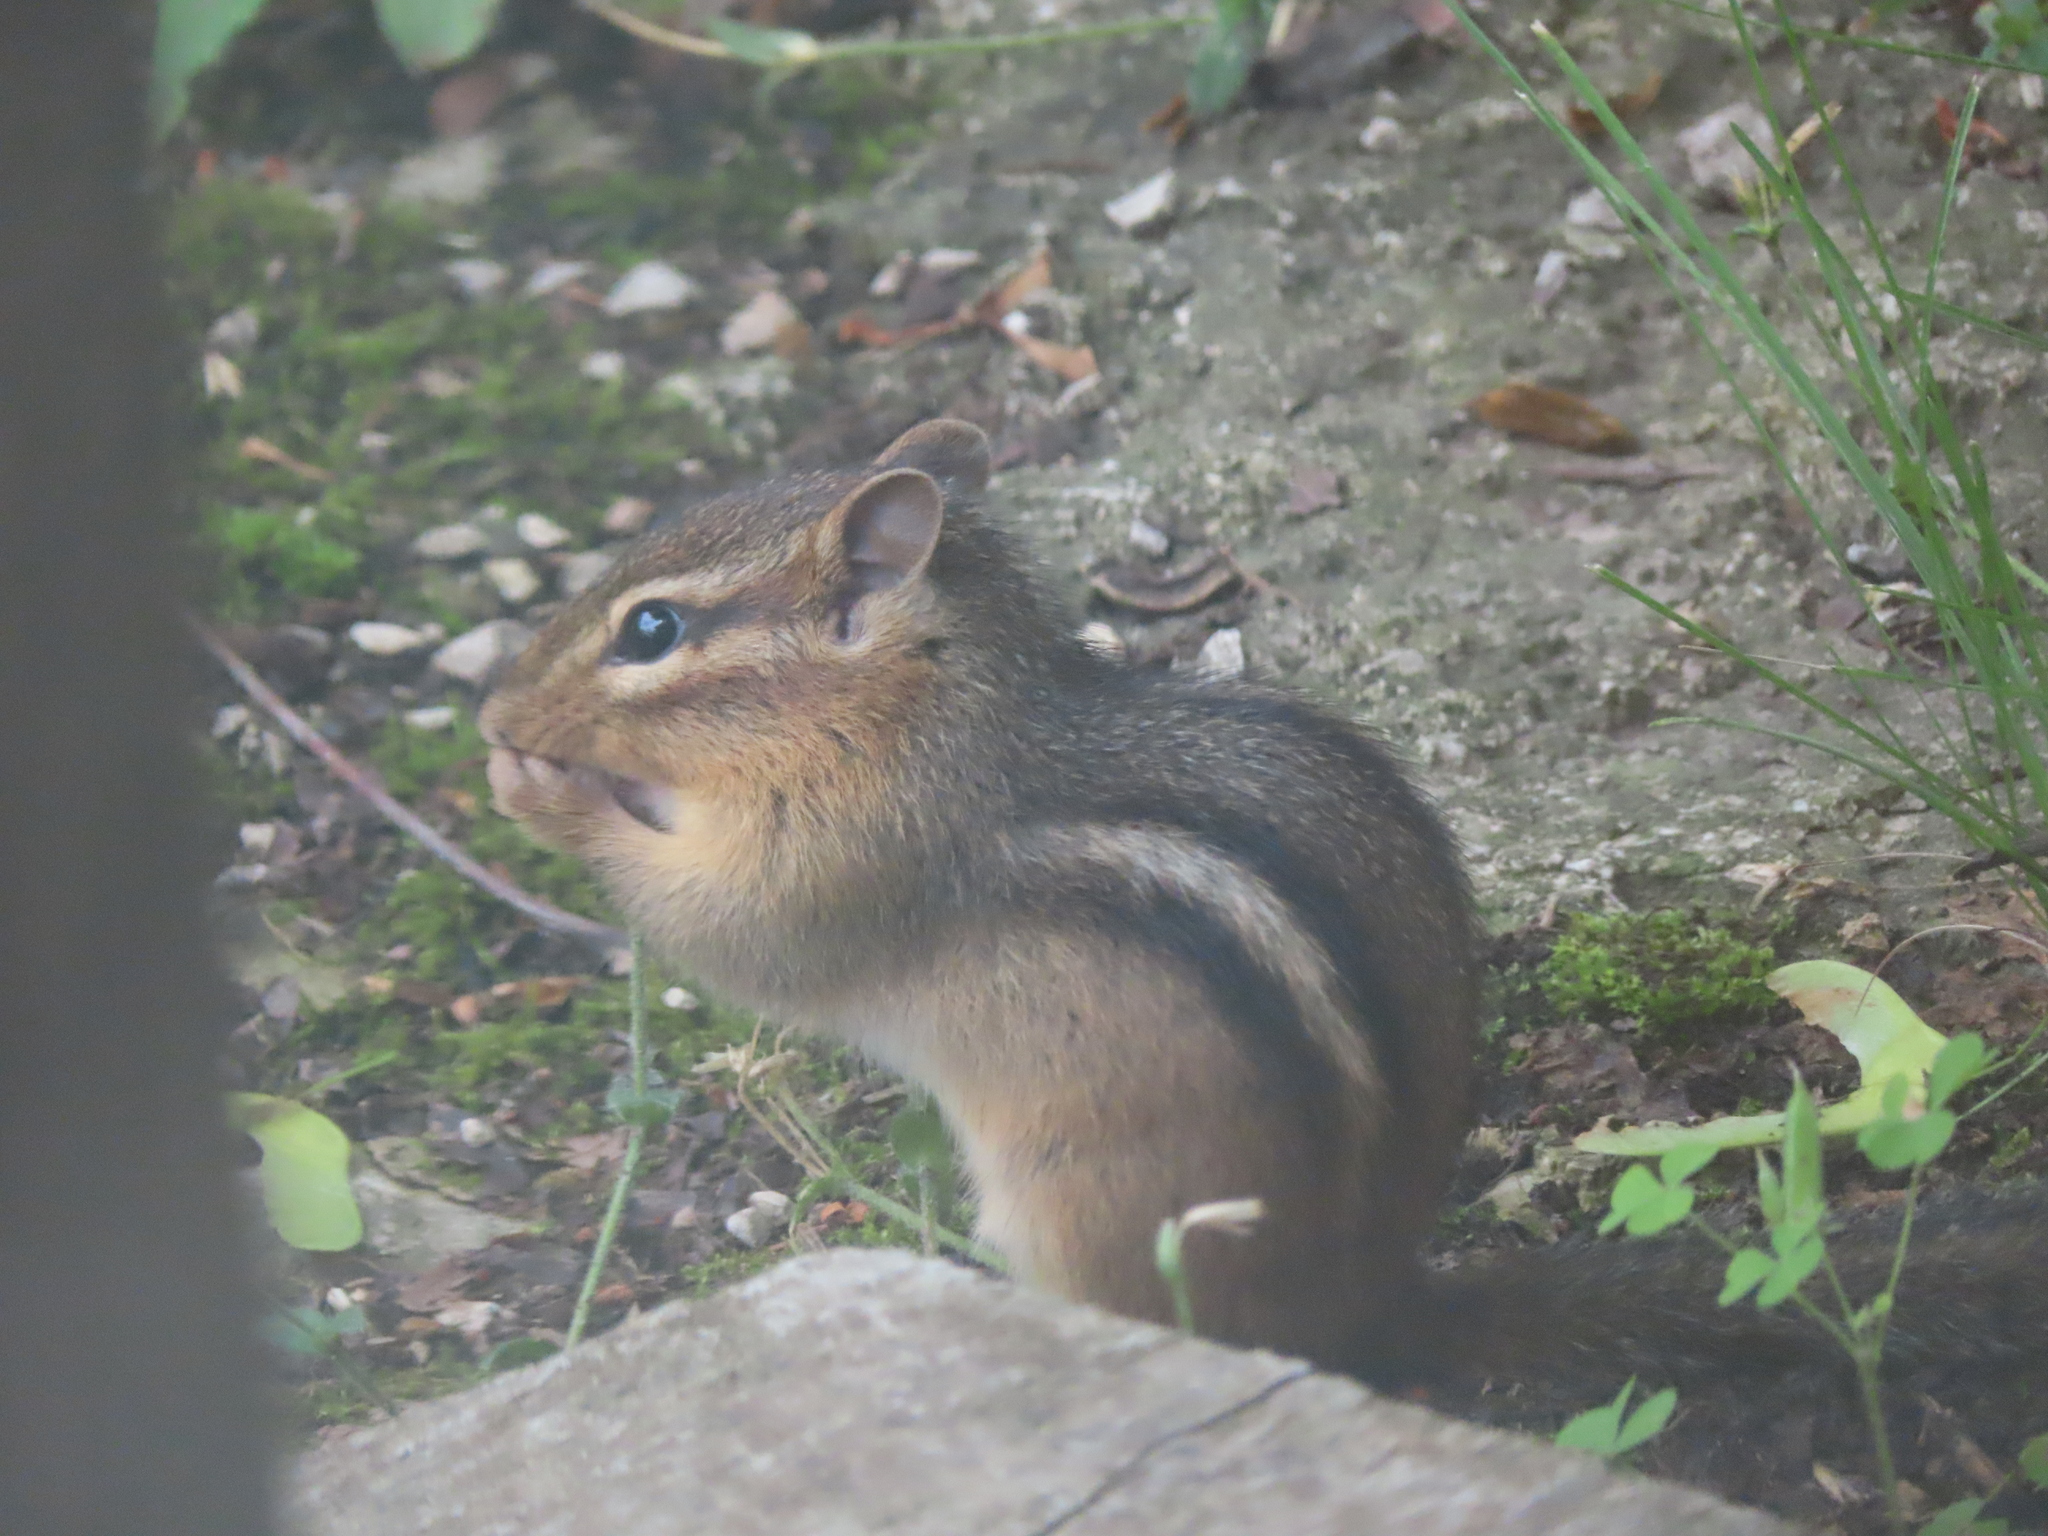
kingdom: Animalia
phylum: Chordata
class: Mammalia
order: Rodentia
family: Sciuridae
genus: Tamias
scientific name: Tamias striatus
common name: Eastern chipmunk
